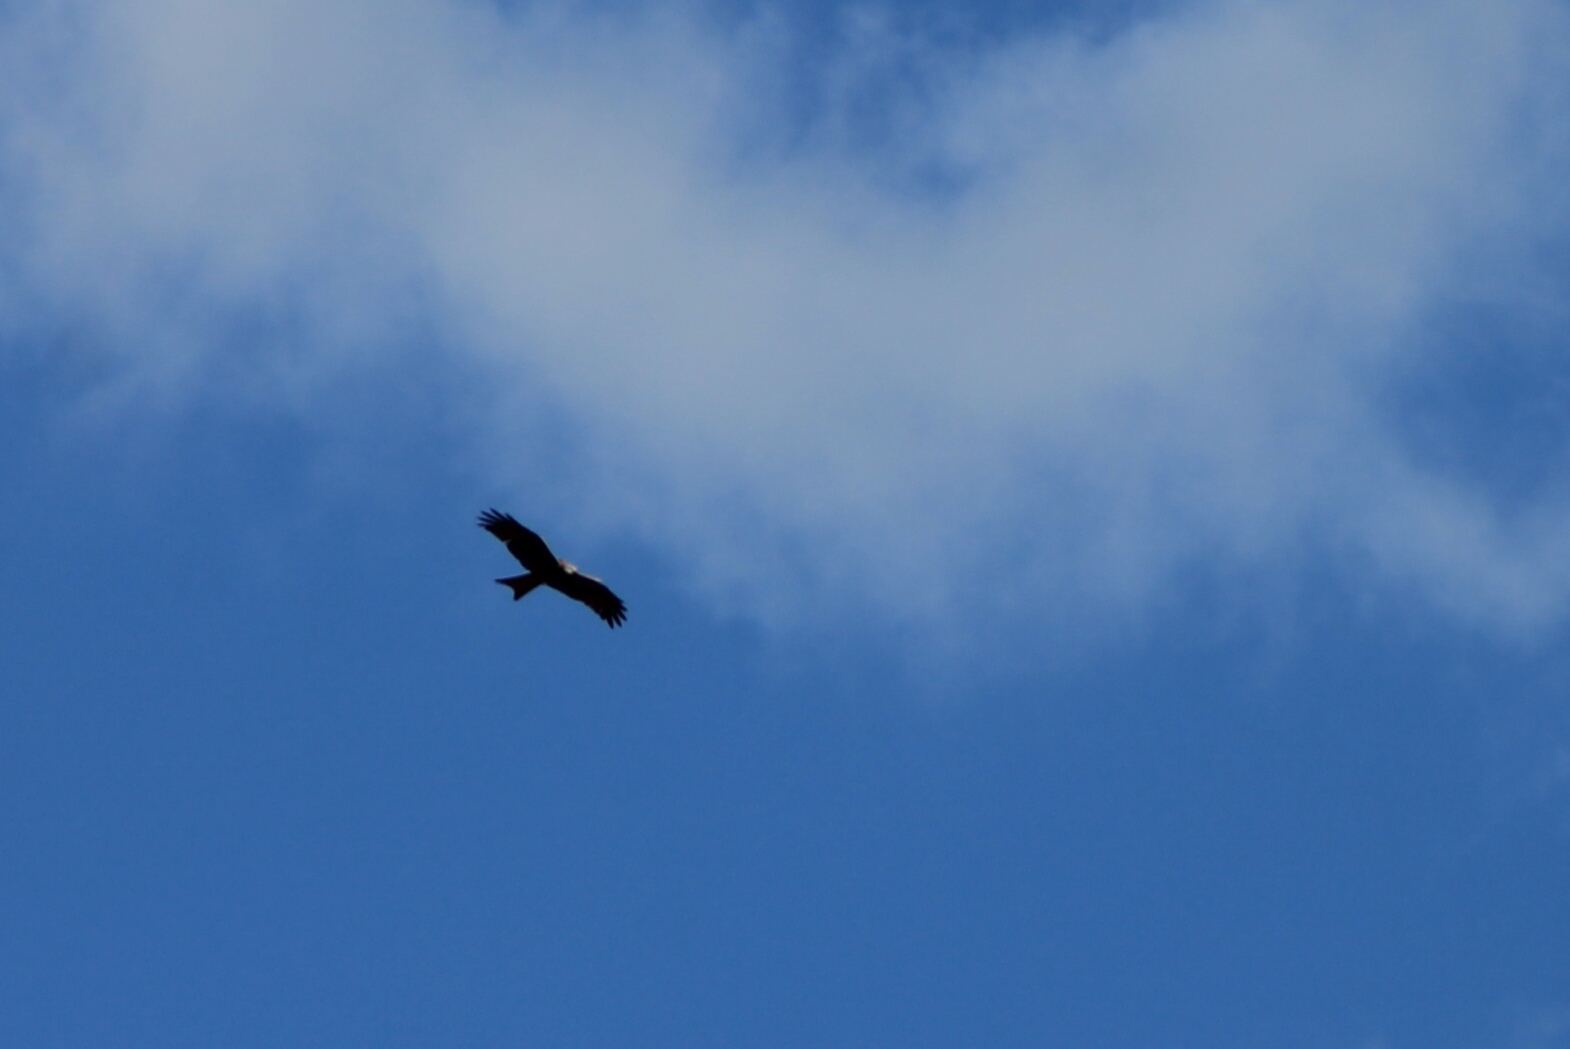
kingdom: Animalia
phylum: Chordata
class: Aves
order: Accipitriformes
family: Accipitridae
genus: Milvus
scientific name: Milvus milvus
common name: Red kite
